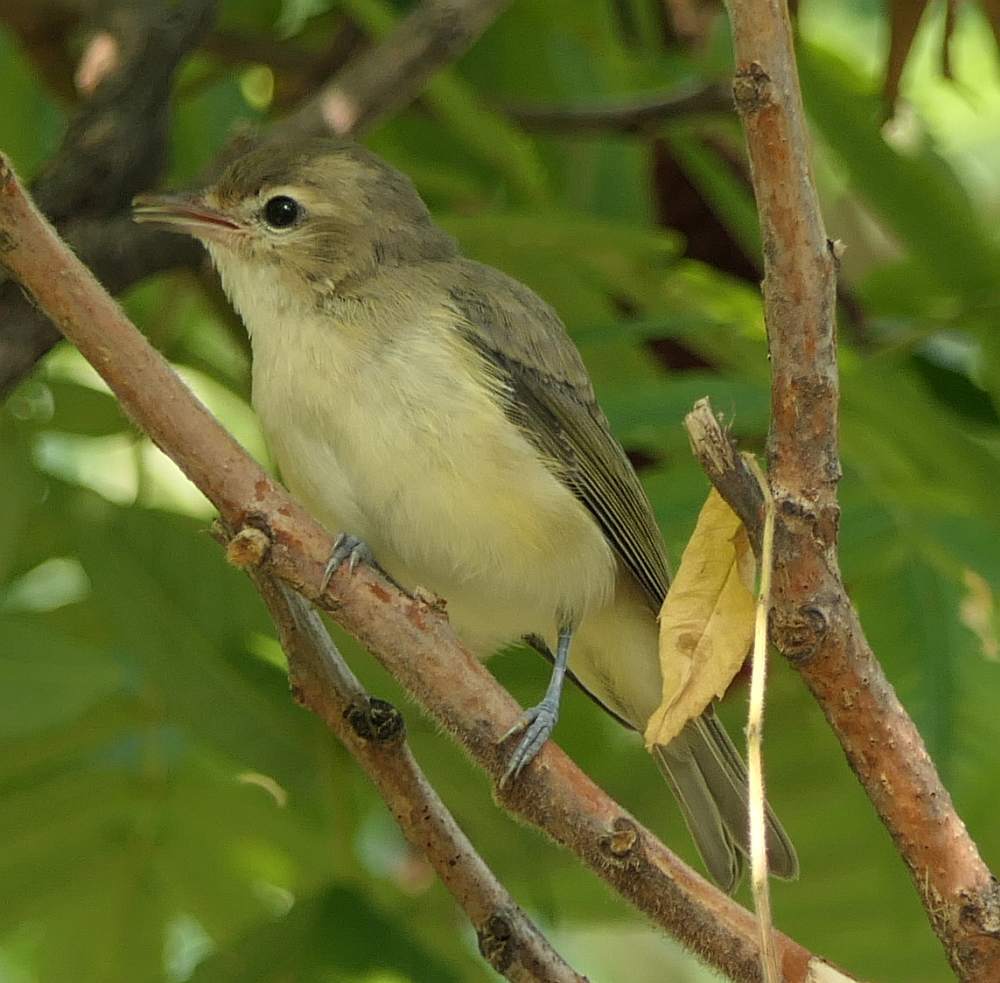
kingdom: Animalia
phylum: Chordata
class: Aves
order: Passeriformes
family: Vireonidae
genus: Vireo
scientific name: Vireo gilvus
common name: Warbling vireo
